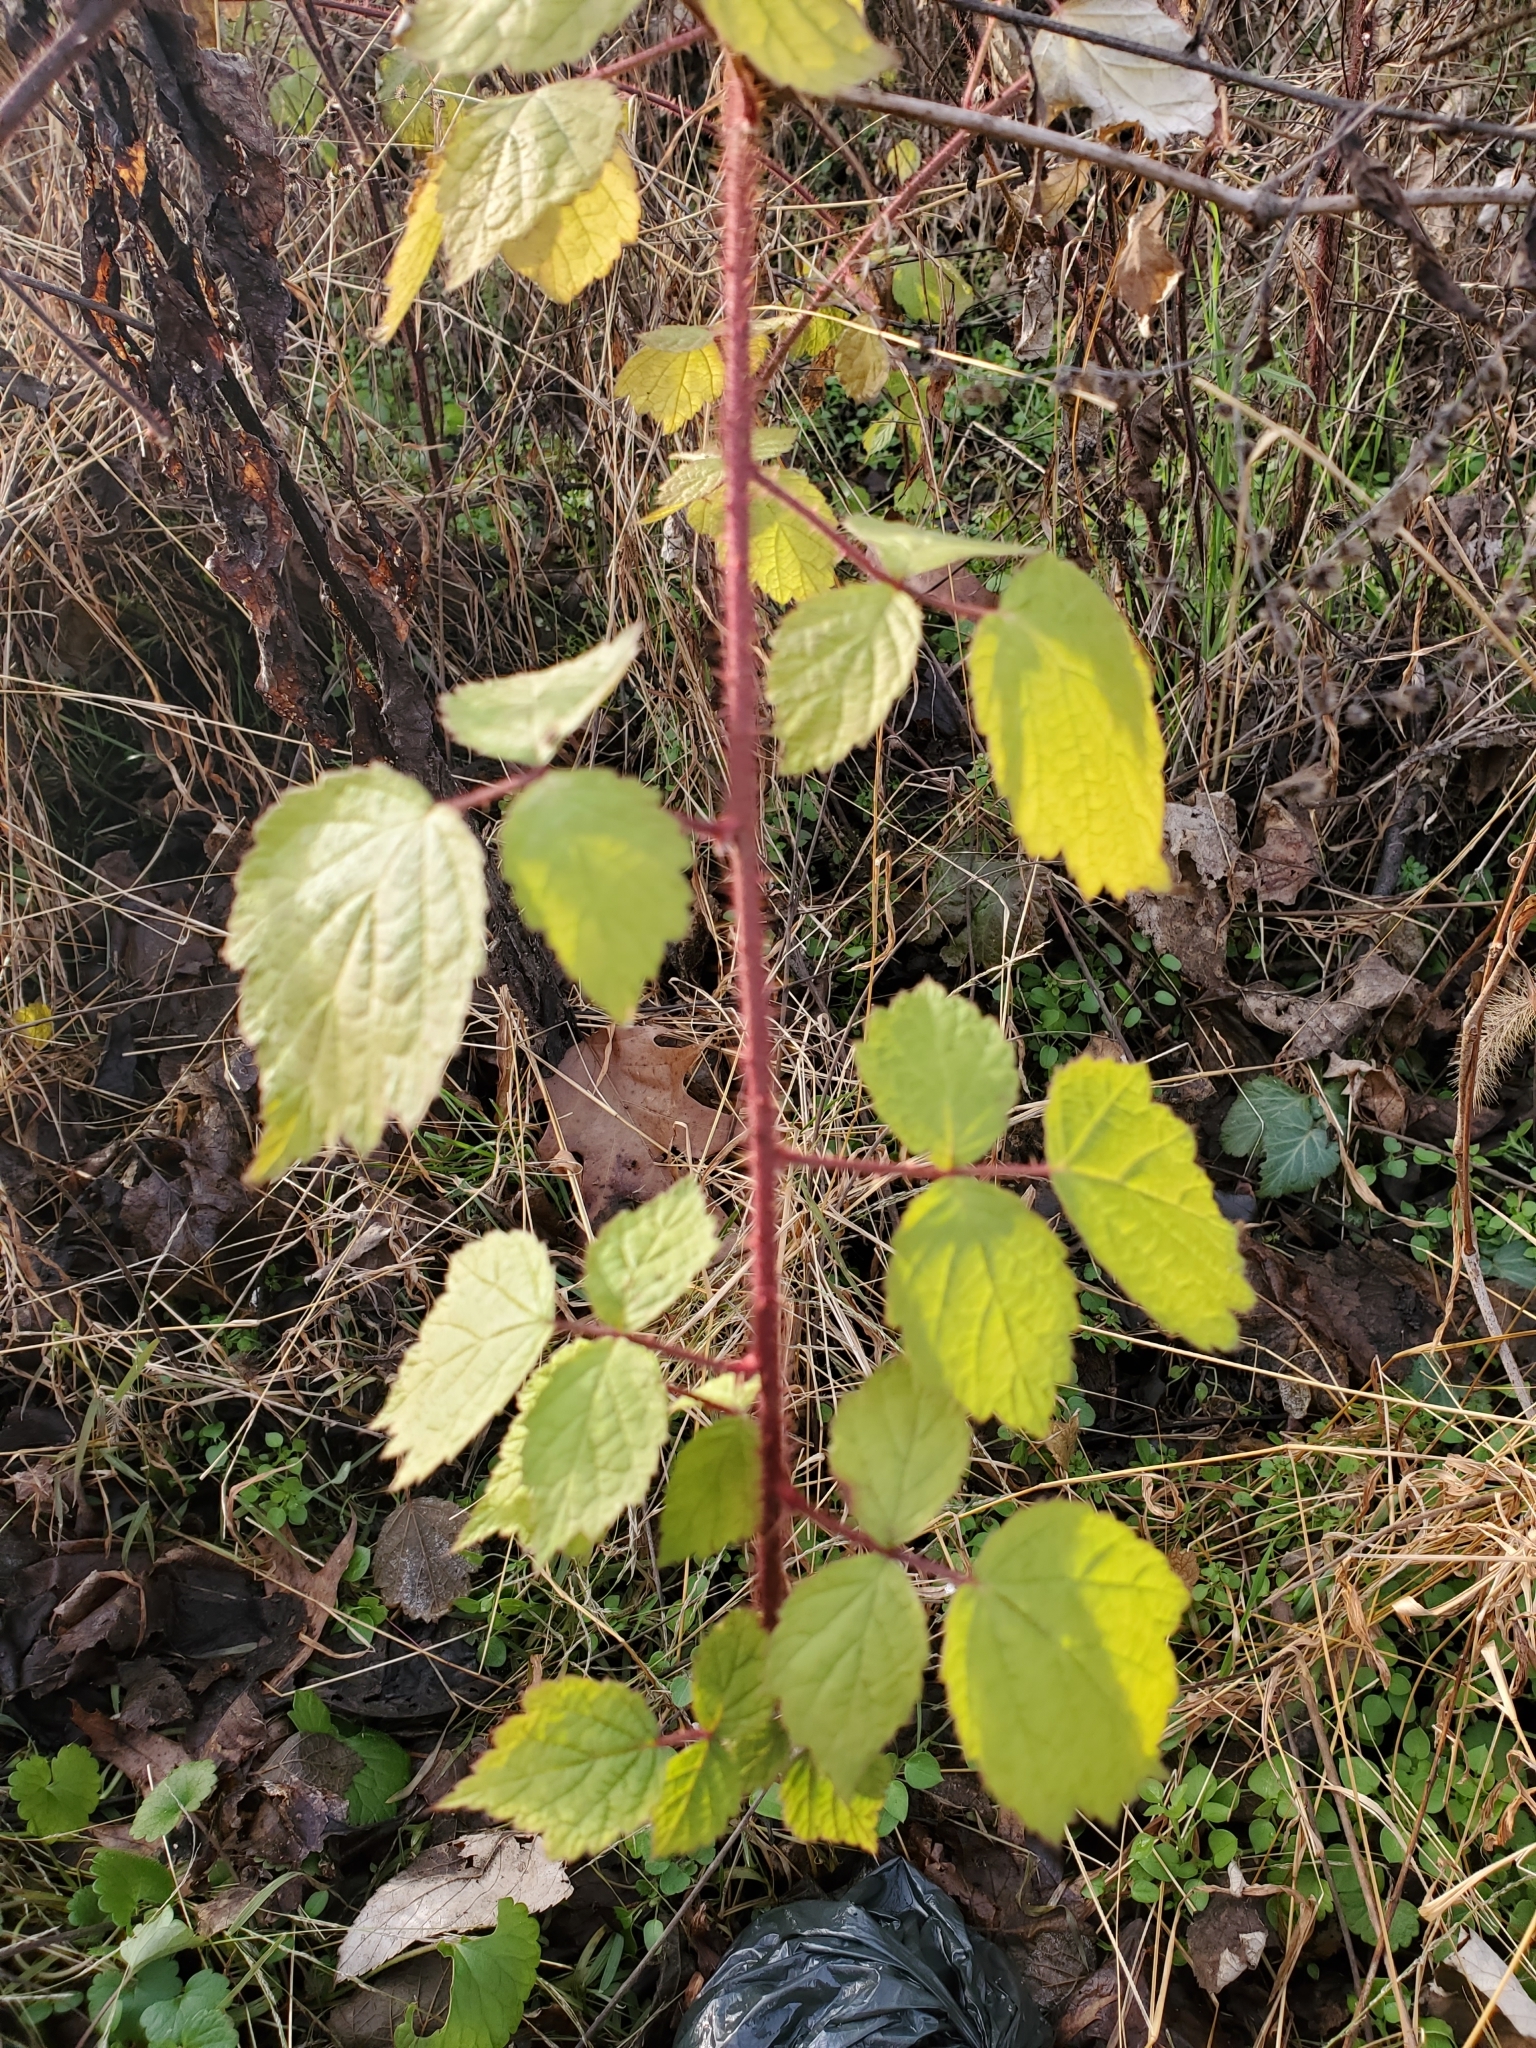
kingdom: Plantae
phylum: Tracheophyta
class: Magnoliopsida
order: Rosales
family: Rosaceae
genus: Rubus
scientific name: Rubus phoenicolasius
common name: Japanese wineberry
